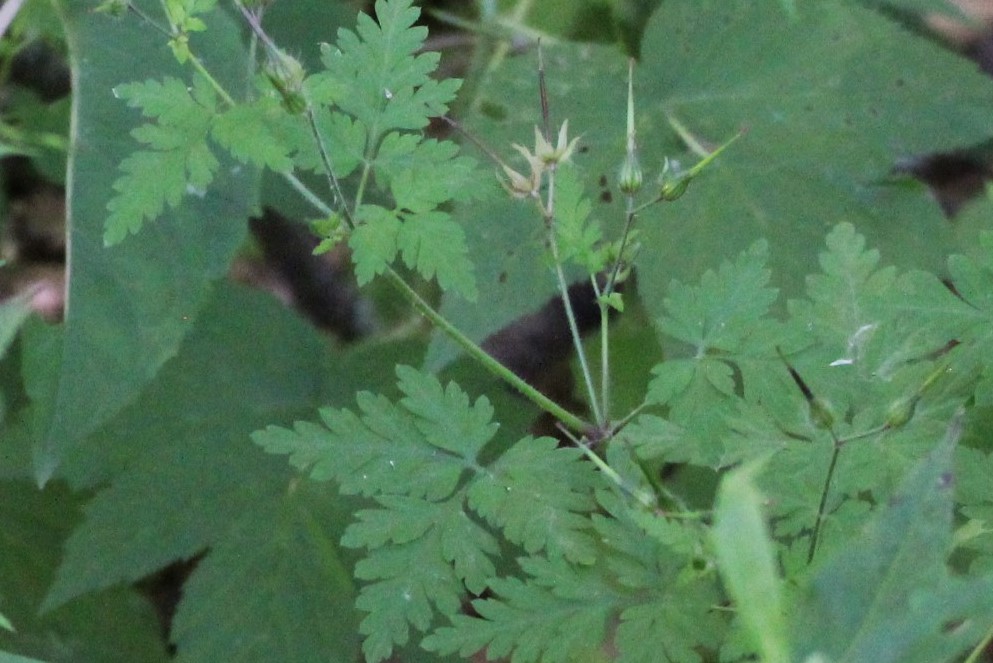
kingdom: Plantae
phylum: Tracheophyta
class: Magnoliopsida
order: Geraniales
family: Geraniaceae
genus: Geranium
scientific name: Geranium robertianum
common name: Herb-robert
